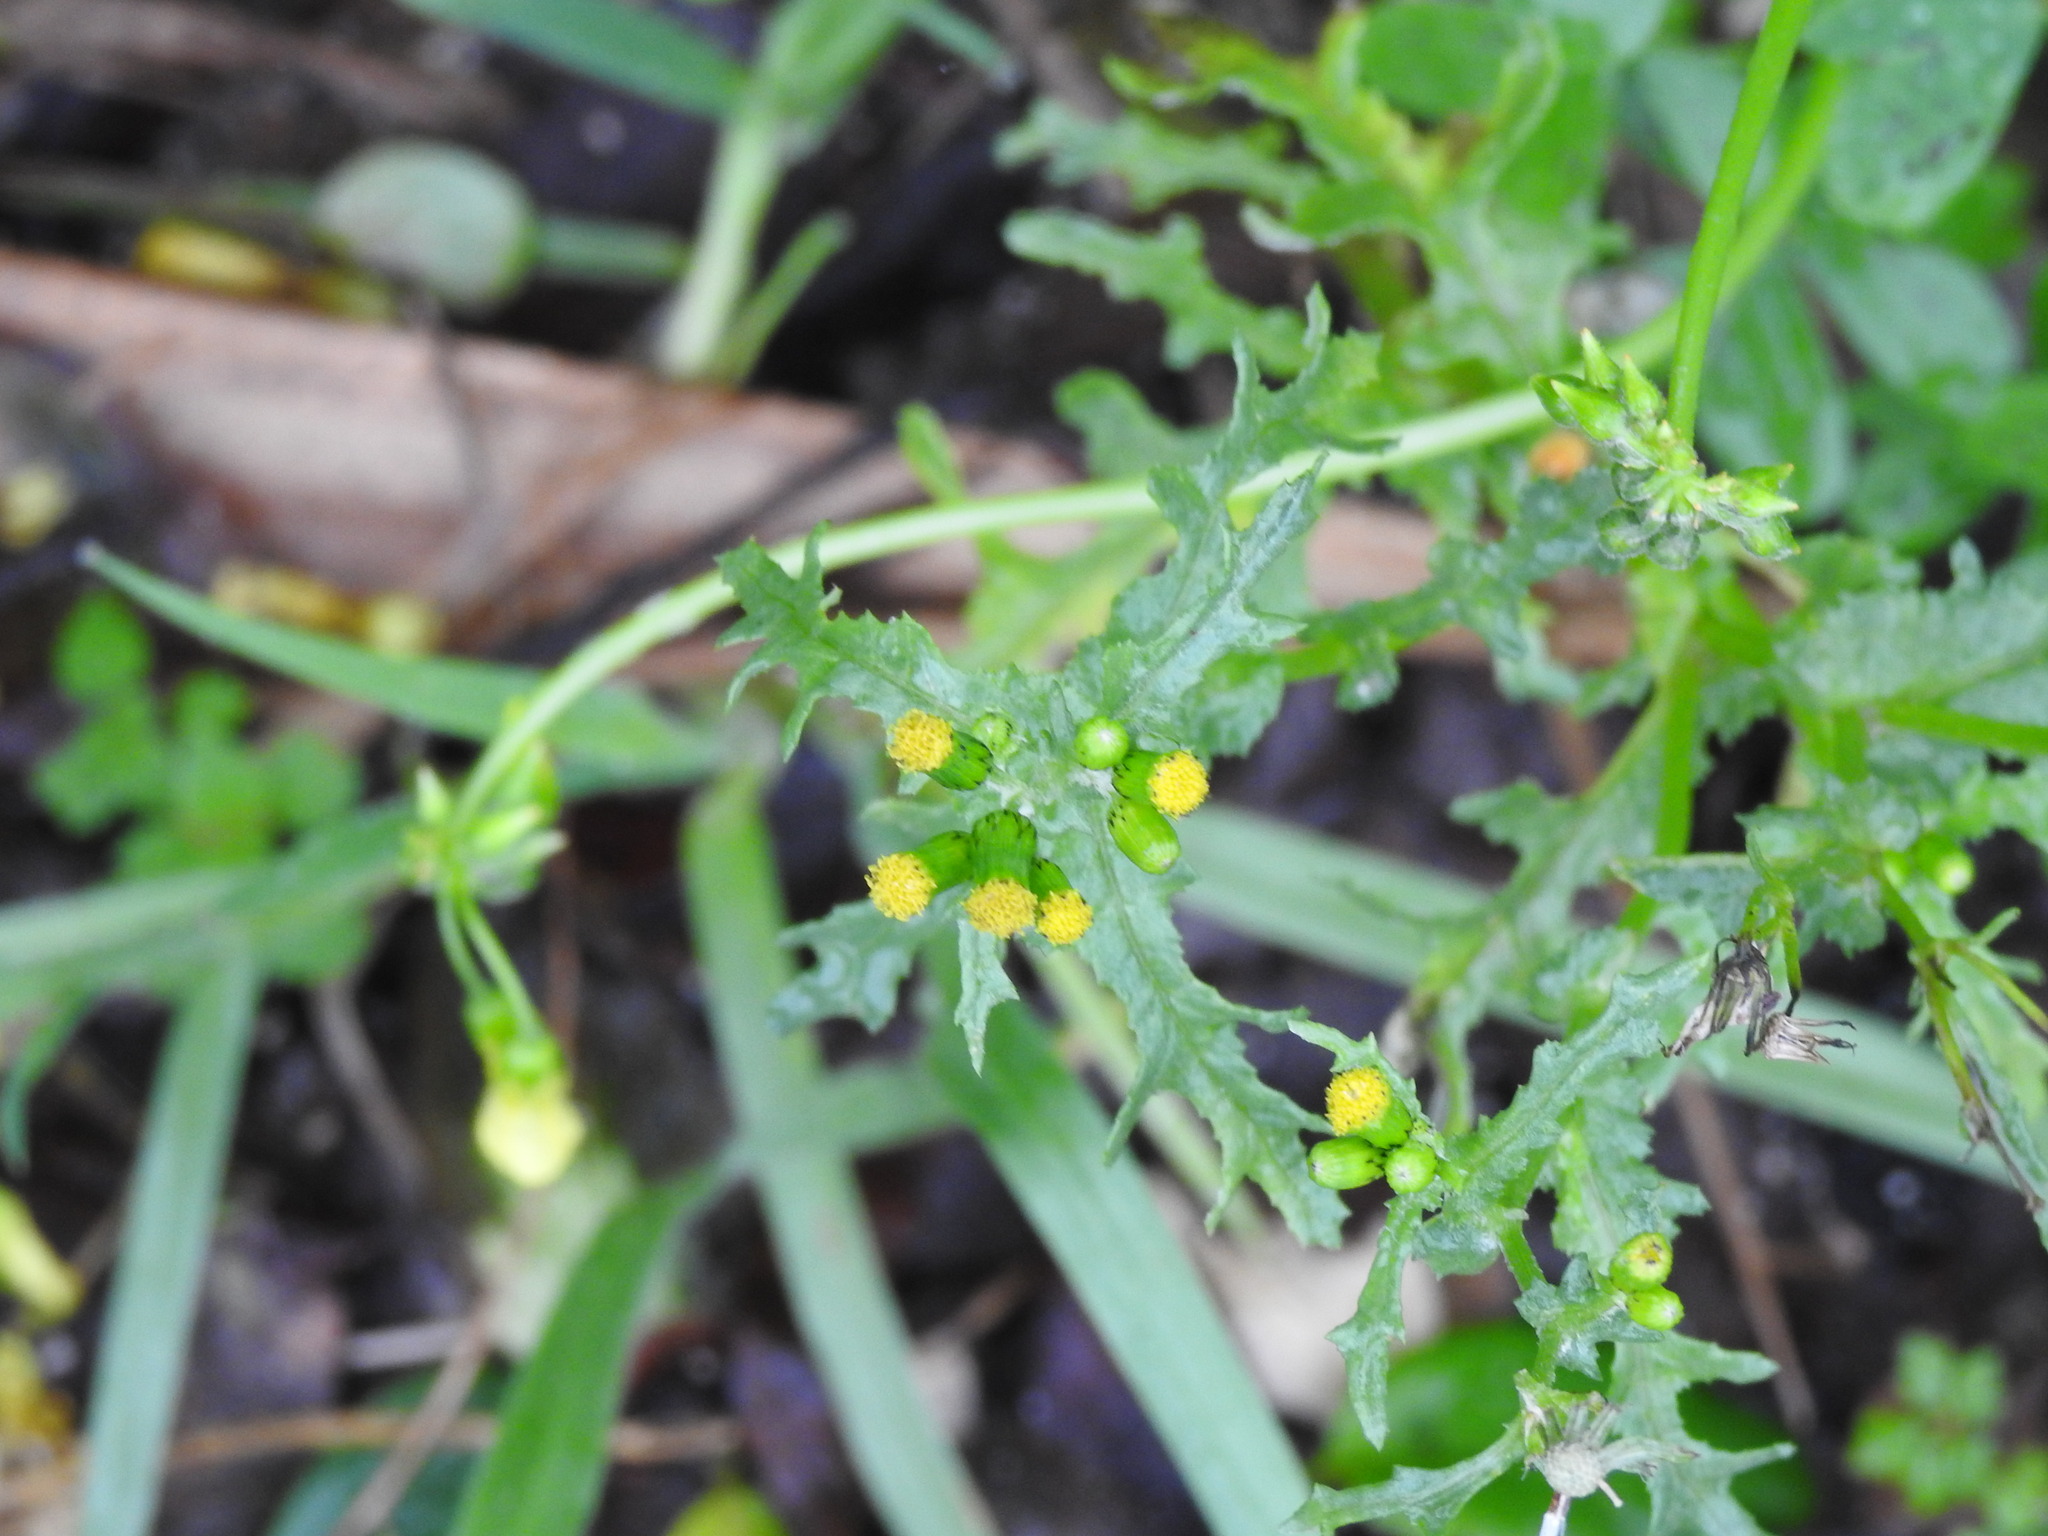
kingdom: Plantae
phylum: Tracheophyta
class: Magnoliopsida
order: Asterales
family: Asteraceae
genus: Senecio
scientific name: Senecio vulgaris
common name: Old-man-in-the-spring
